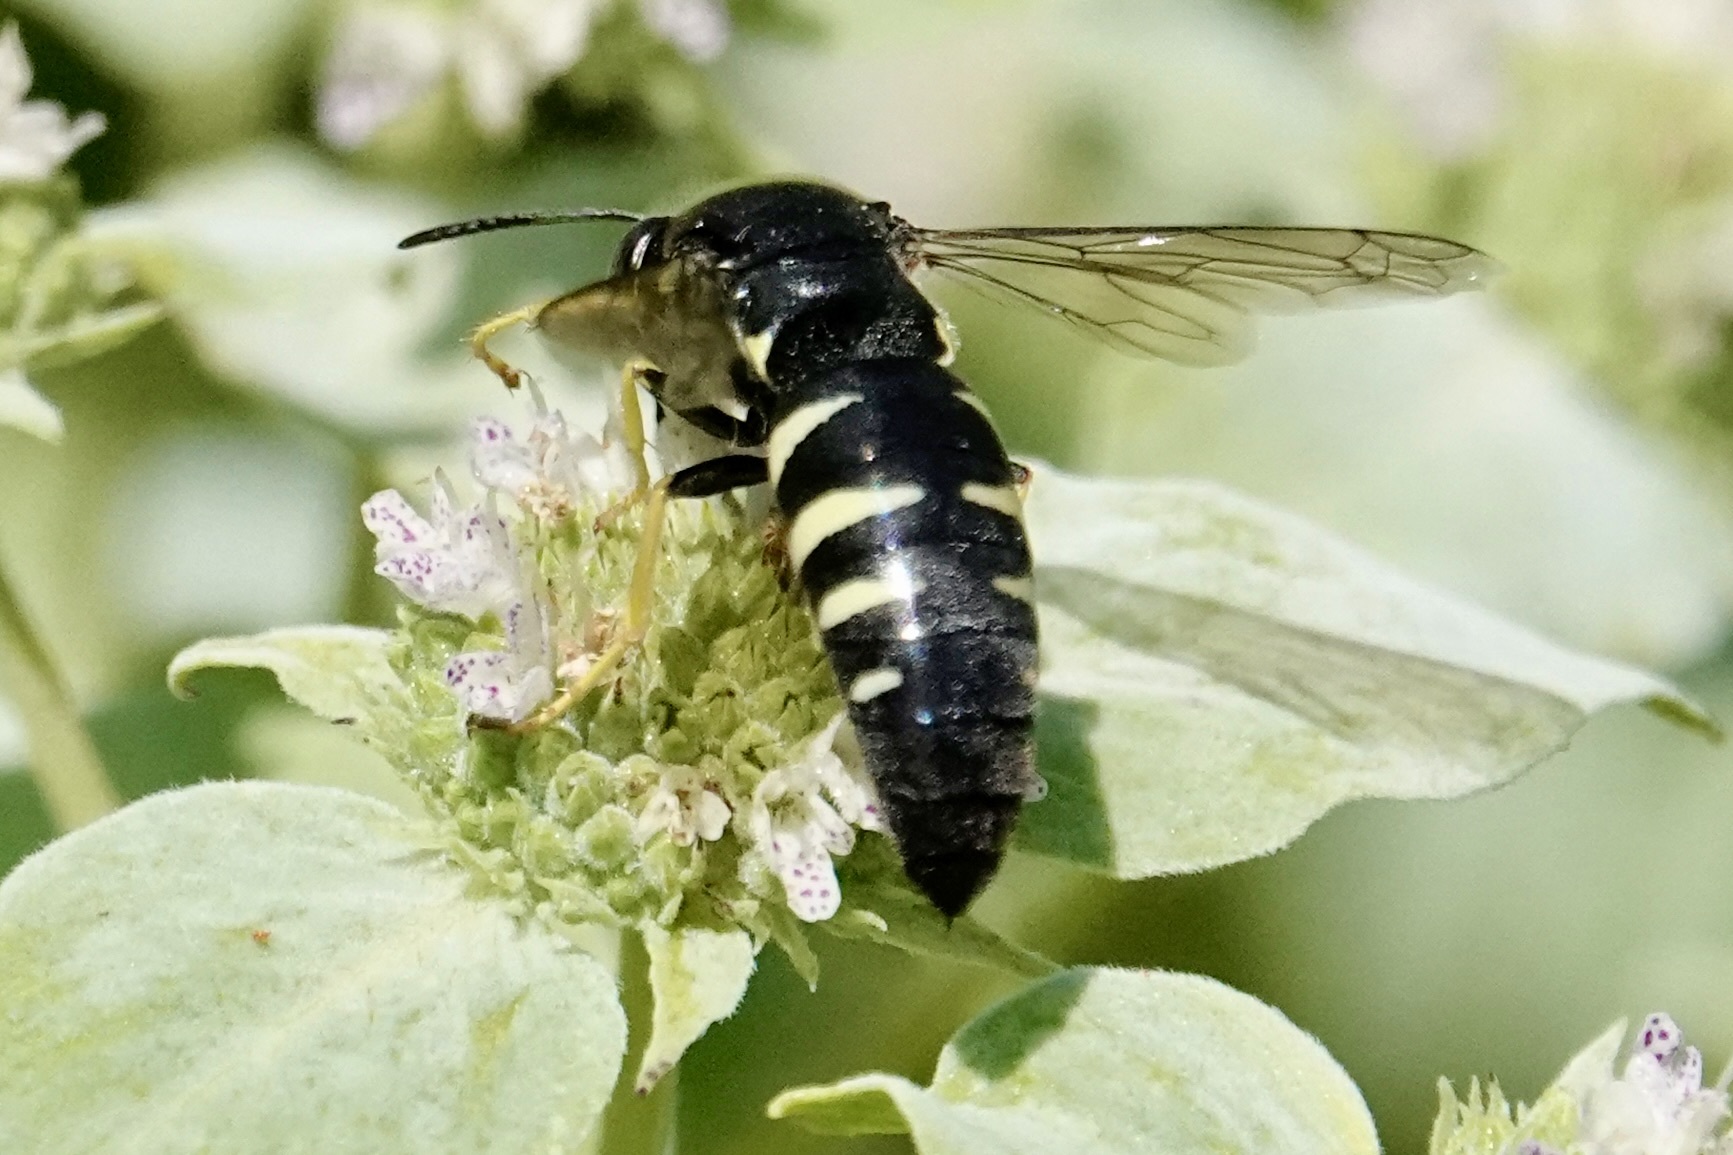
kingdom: Animalia
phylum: Arthropoda
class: Insecta
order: Hymenoptera
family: Crabronidae
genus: Bicyrtes
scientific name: Bicyrtes quadrifasciatus
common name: Four-banded stink bug hunter wasp
